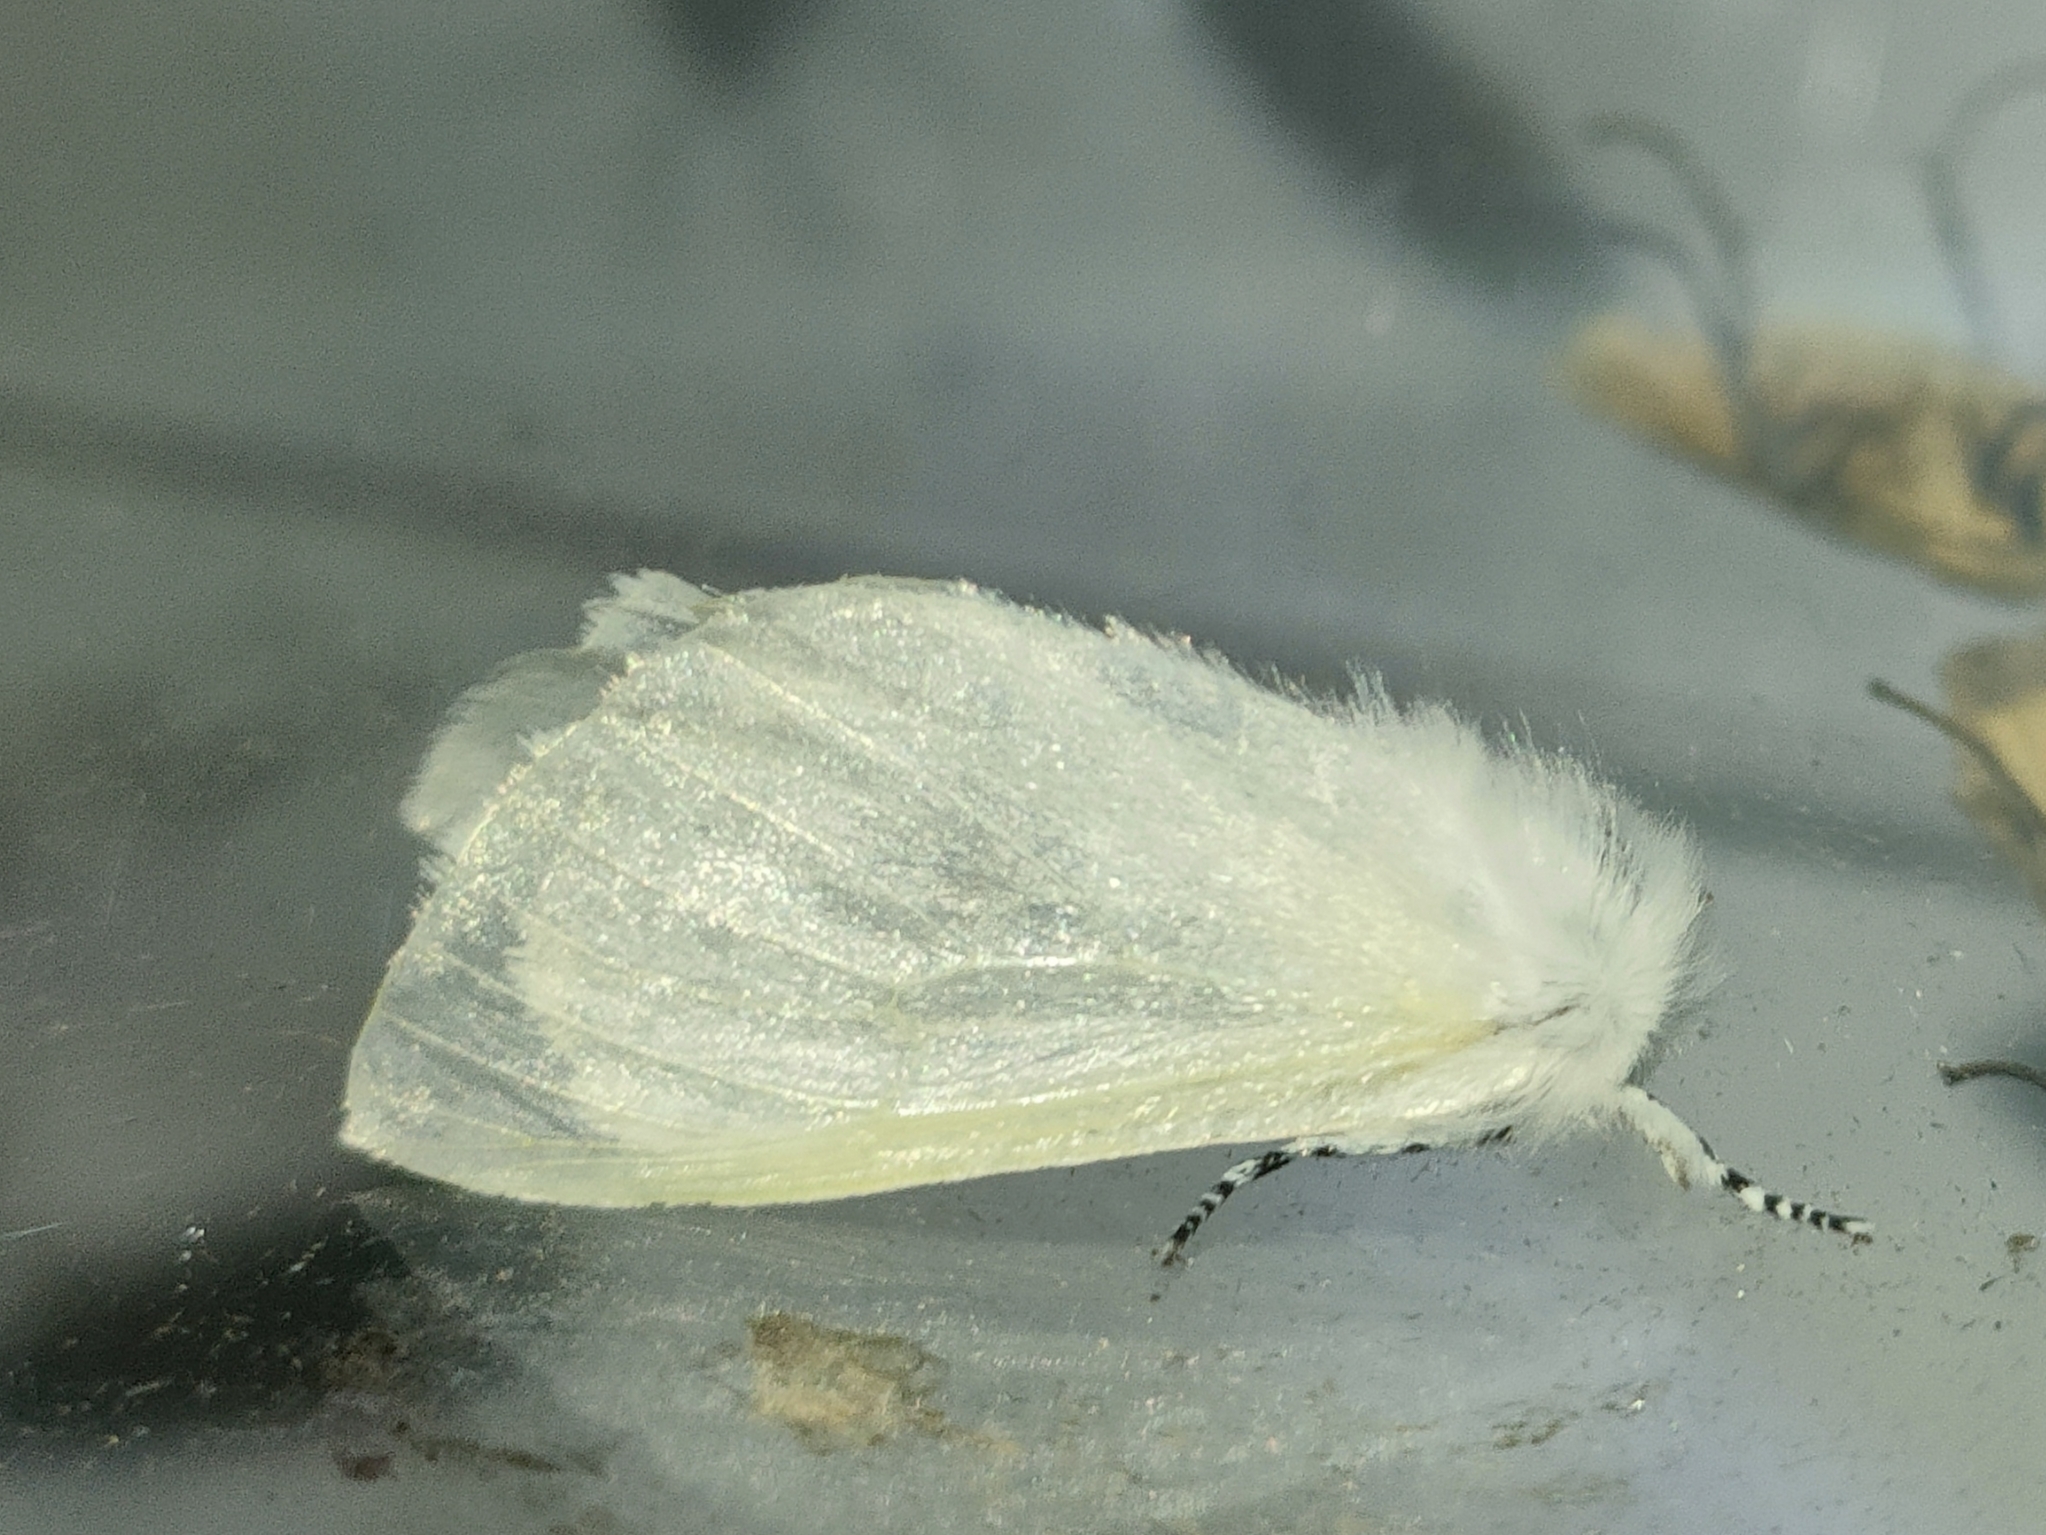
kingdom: Animalia
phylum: Arthropoda
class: Insecta
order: Lepidoptera
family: Erebidae
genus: Leucoma
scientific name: Leucoma salicis
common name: White satin moth
